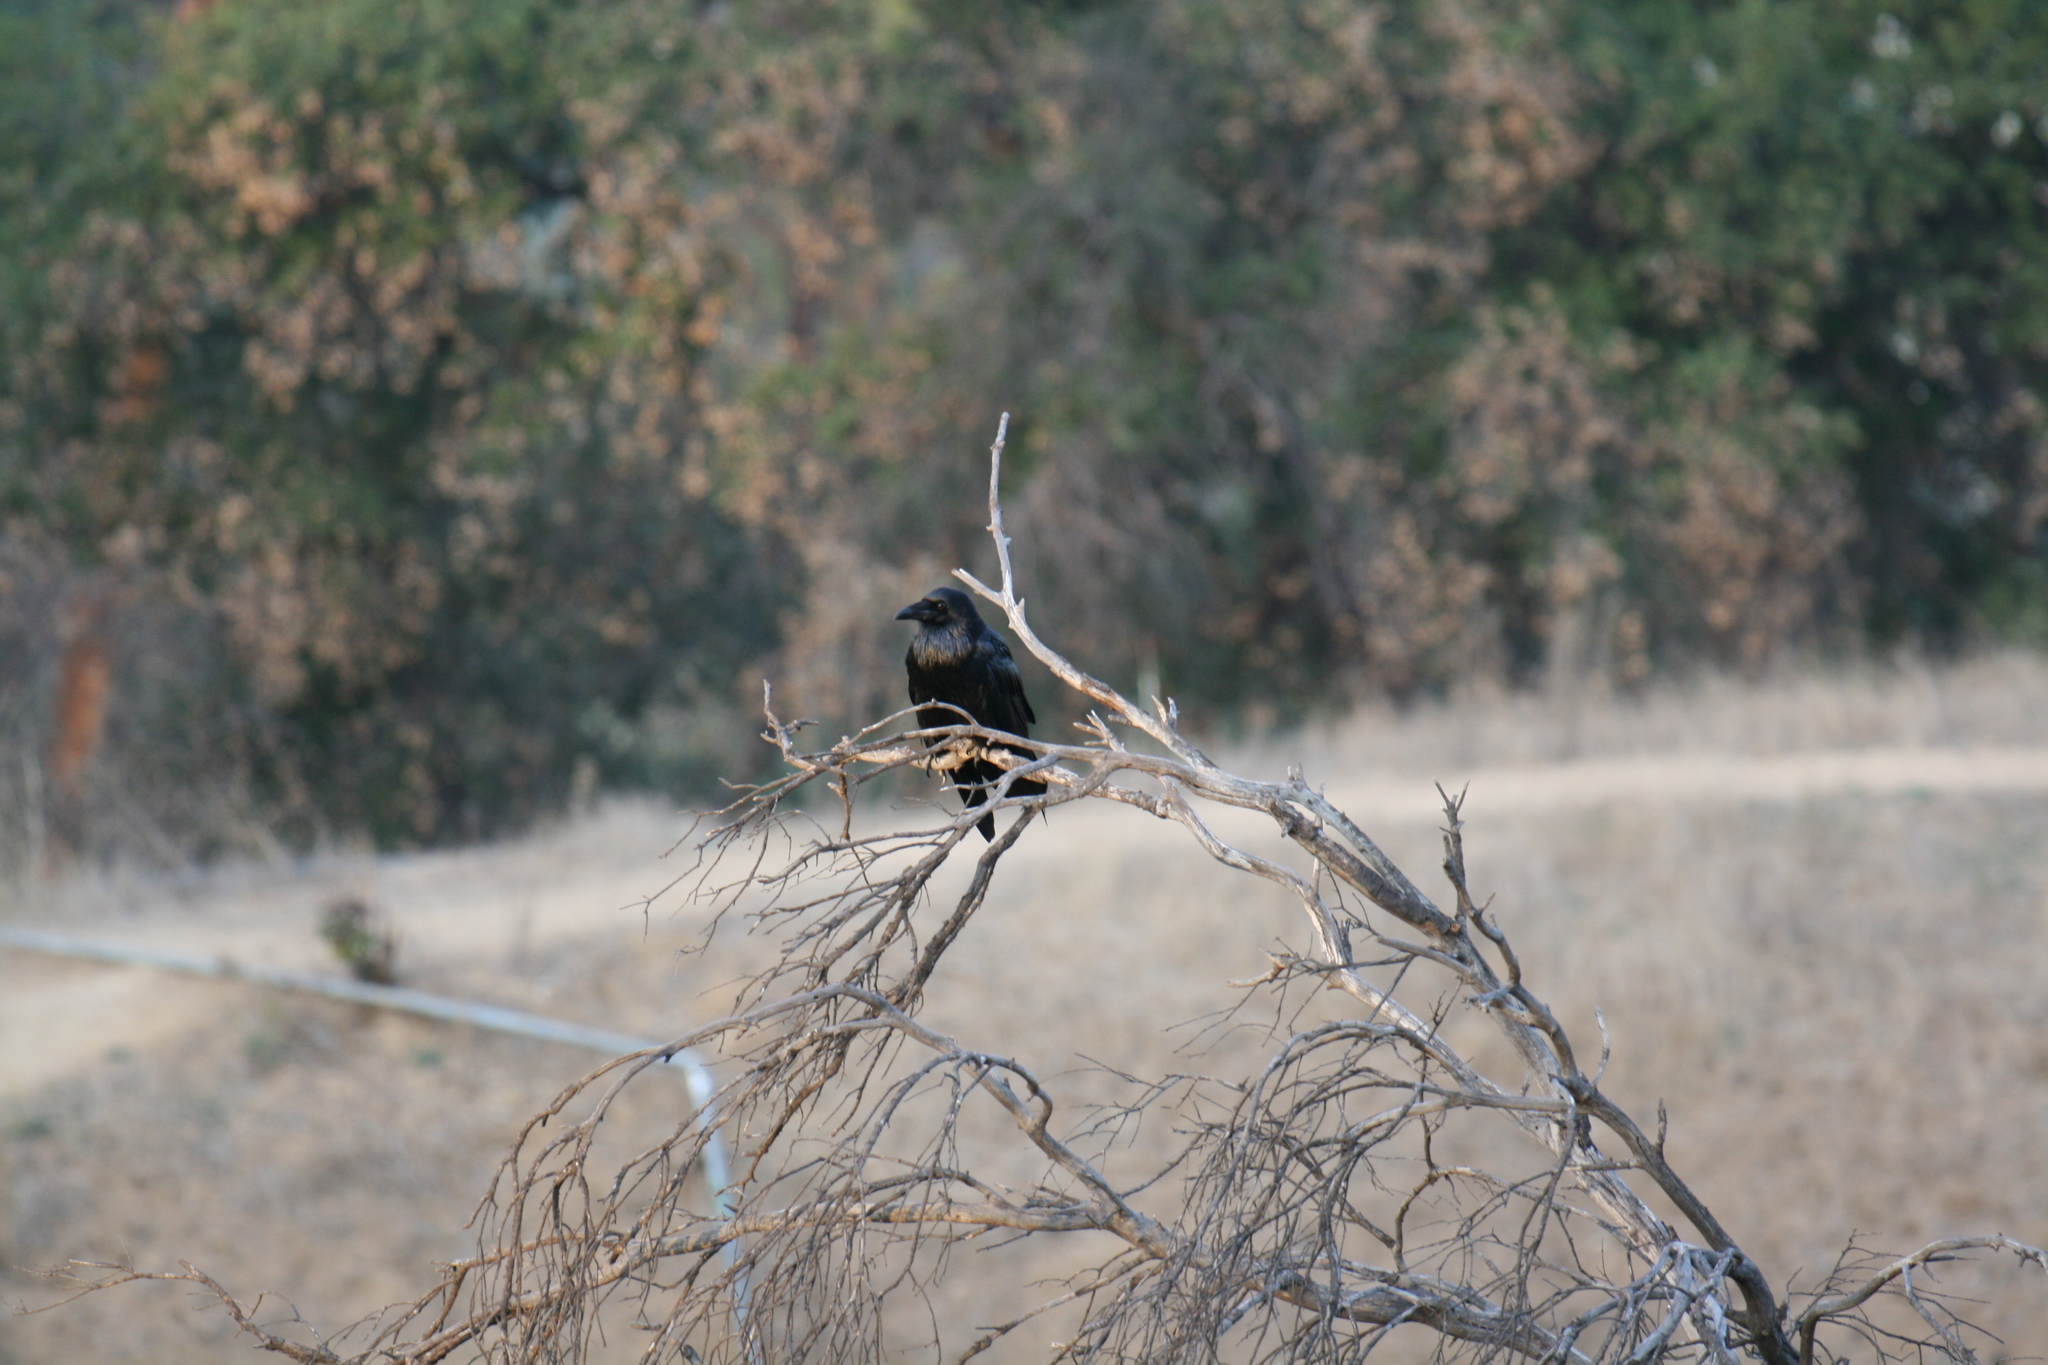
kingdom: Animalia
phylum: Chordata
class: Aves
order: Passeriformes
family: Corvidae
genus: Corvus
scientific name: Corvus corax
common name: Common raven
